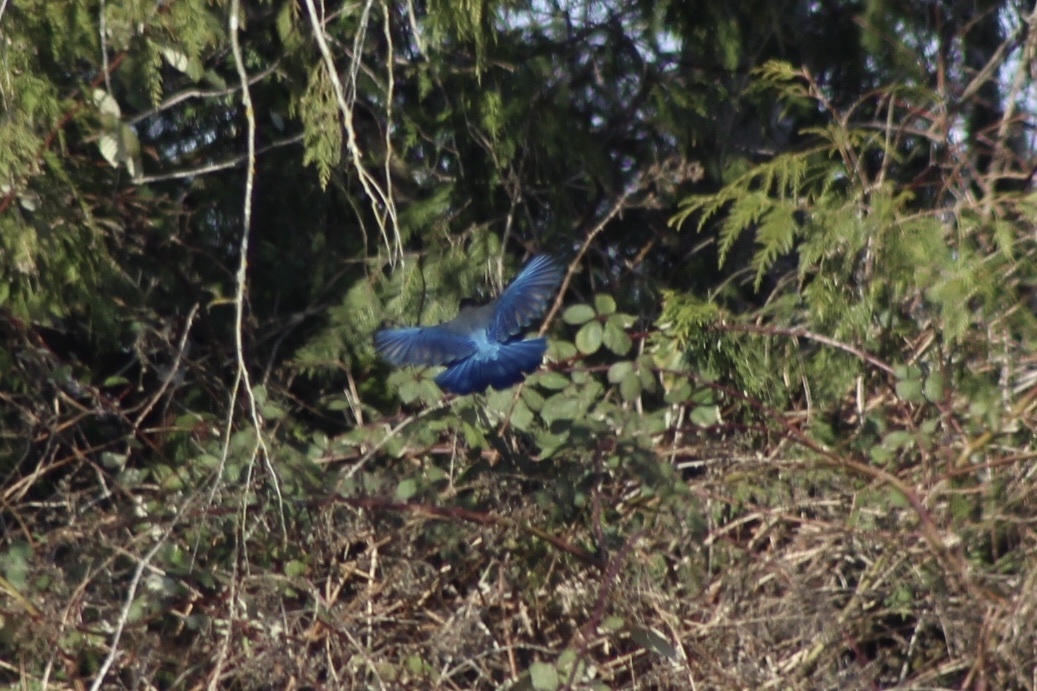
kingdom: Animalia
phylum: Chordata
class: Aves
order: Passeriformes
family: Corvidae
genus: Cyanocitta
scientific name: Cyanocitta stelleri
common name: Steller's jay
